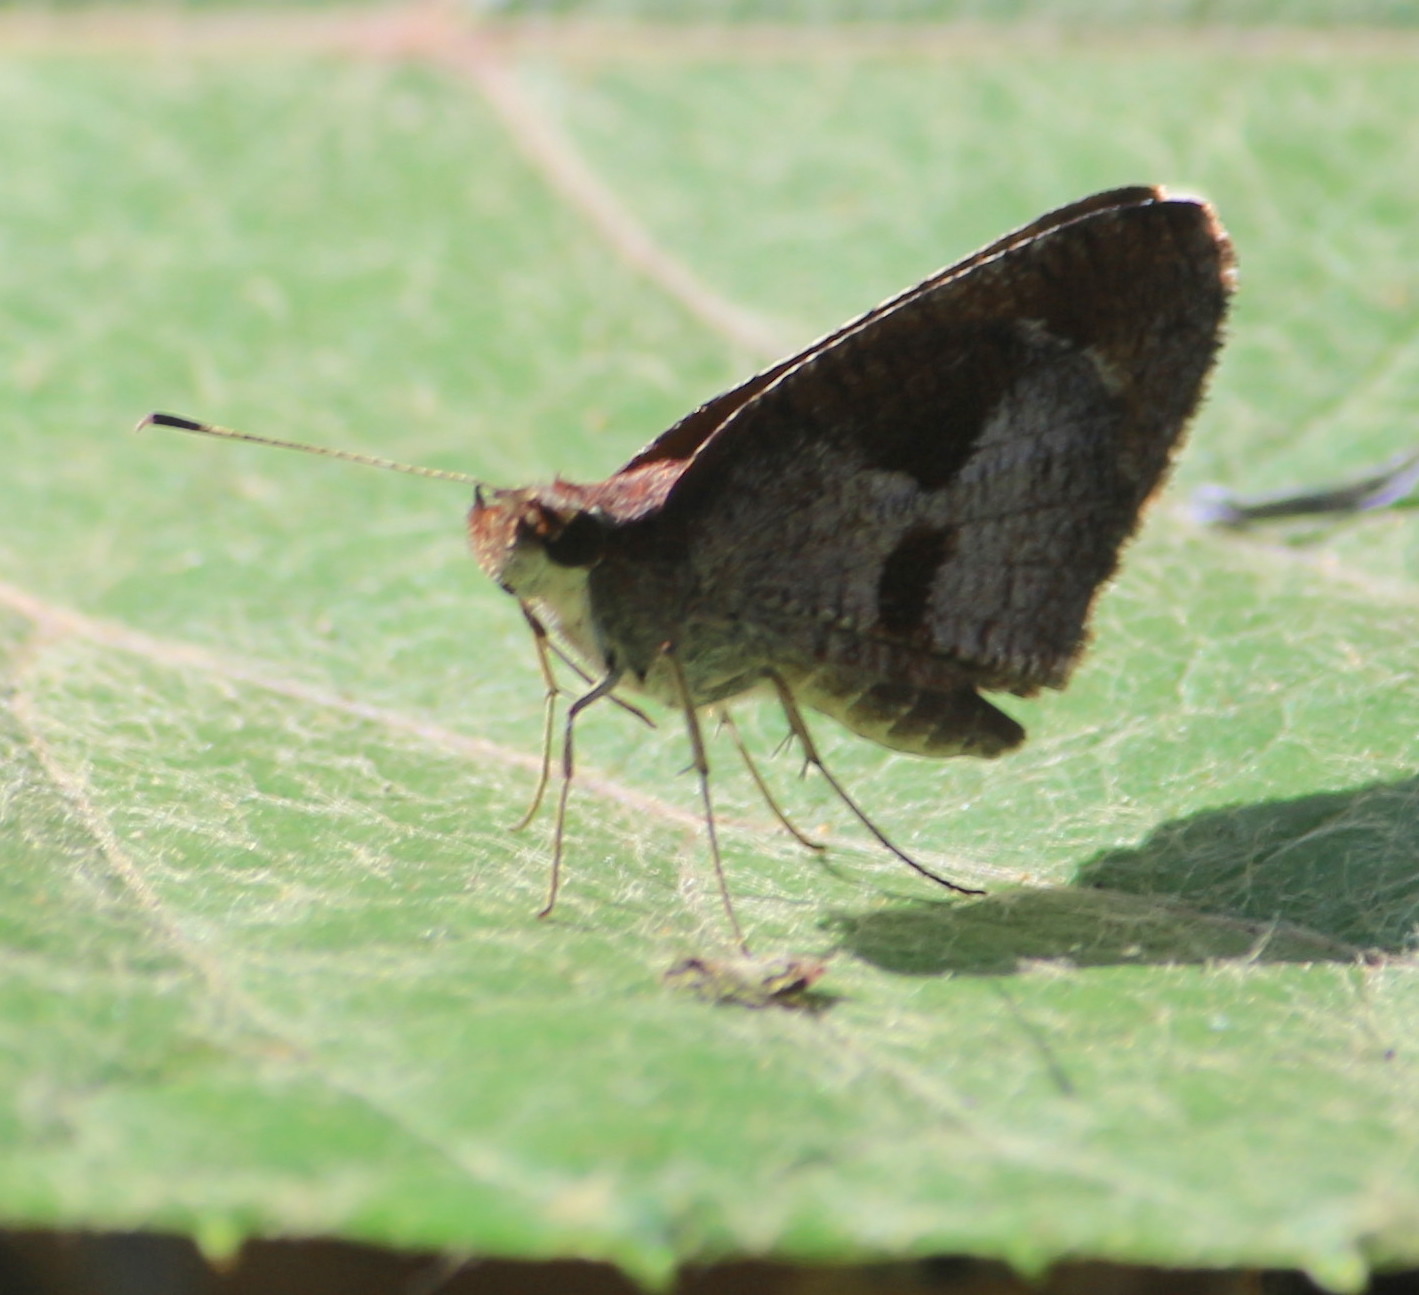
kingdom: Animalia
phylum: Arthropoda
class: Insecta
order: Lepidoptera
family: Hesperiidae
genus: Synapte
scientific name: Synapte syraces
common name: Faceted skipper
